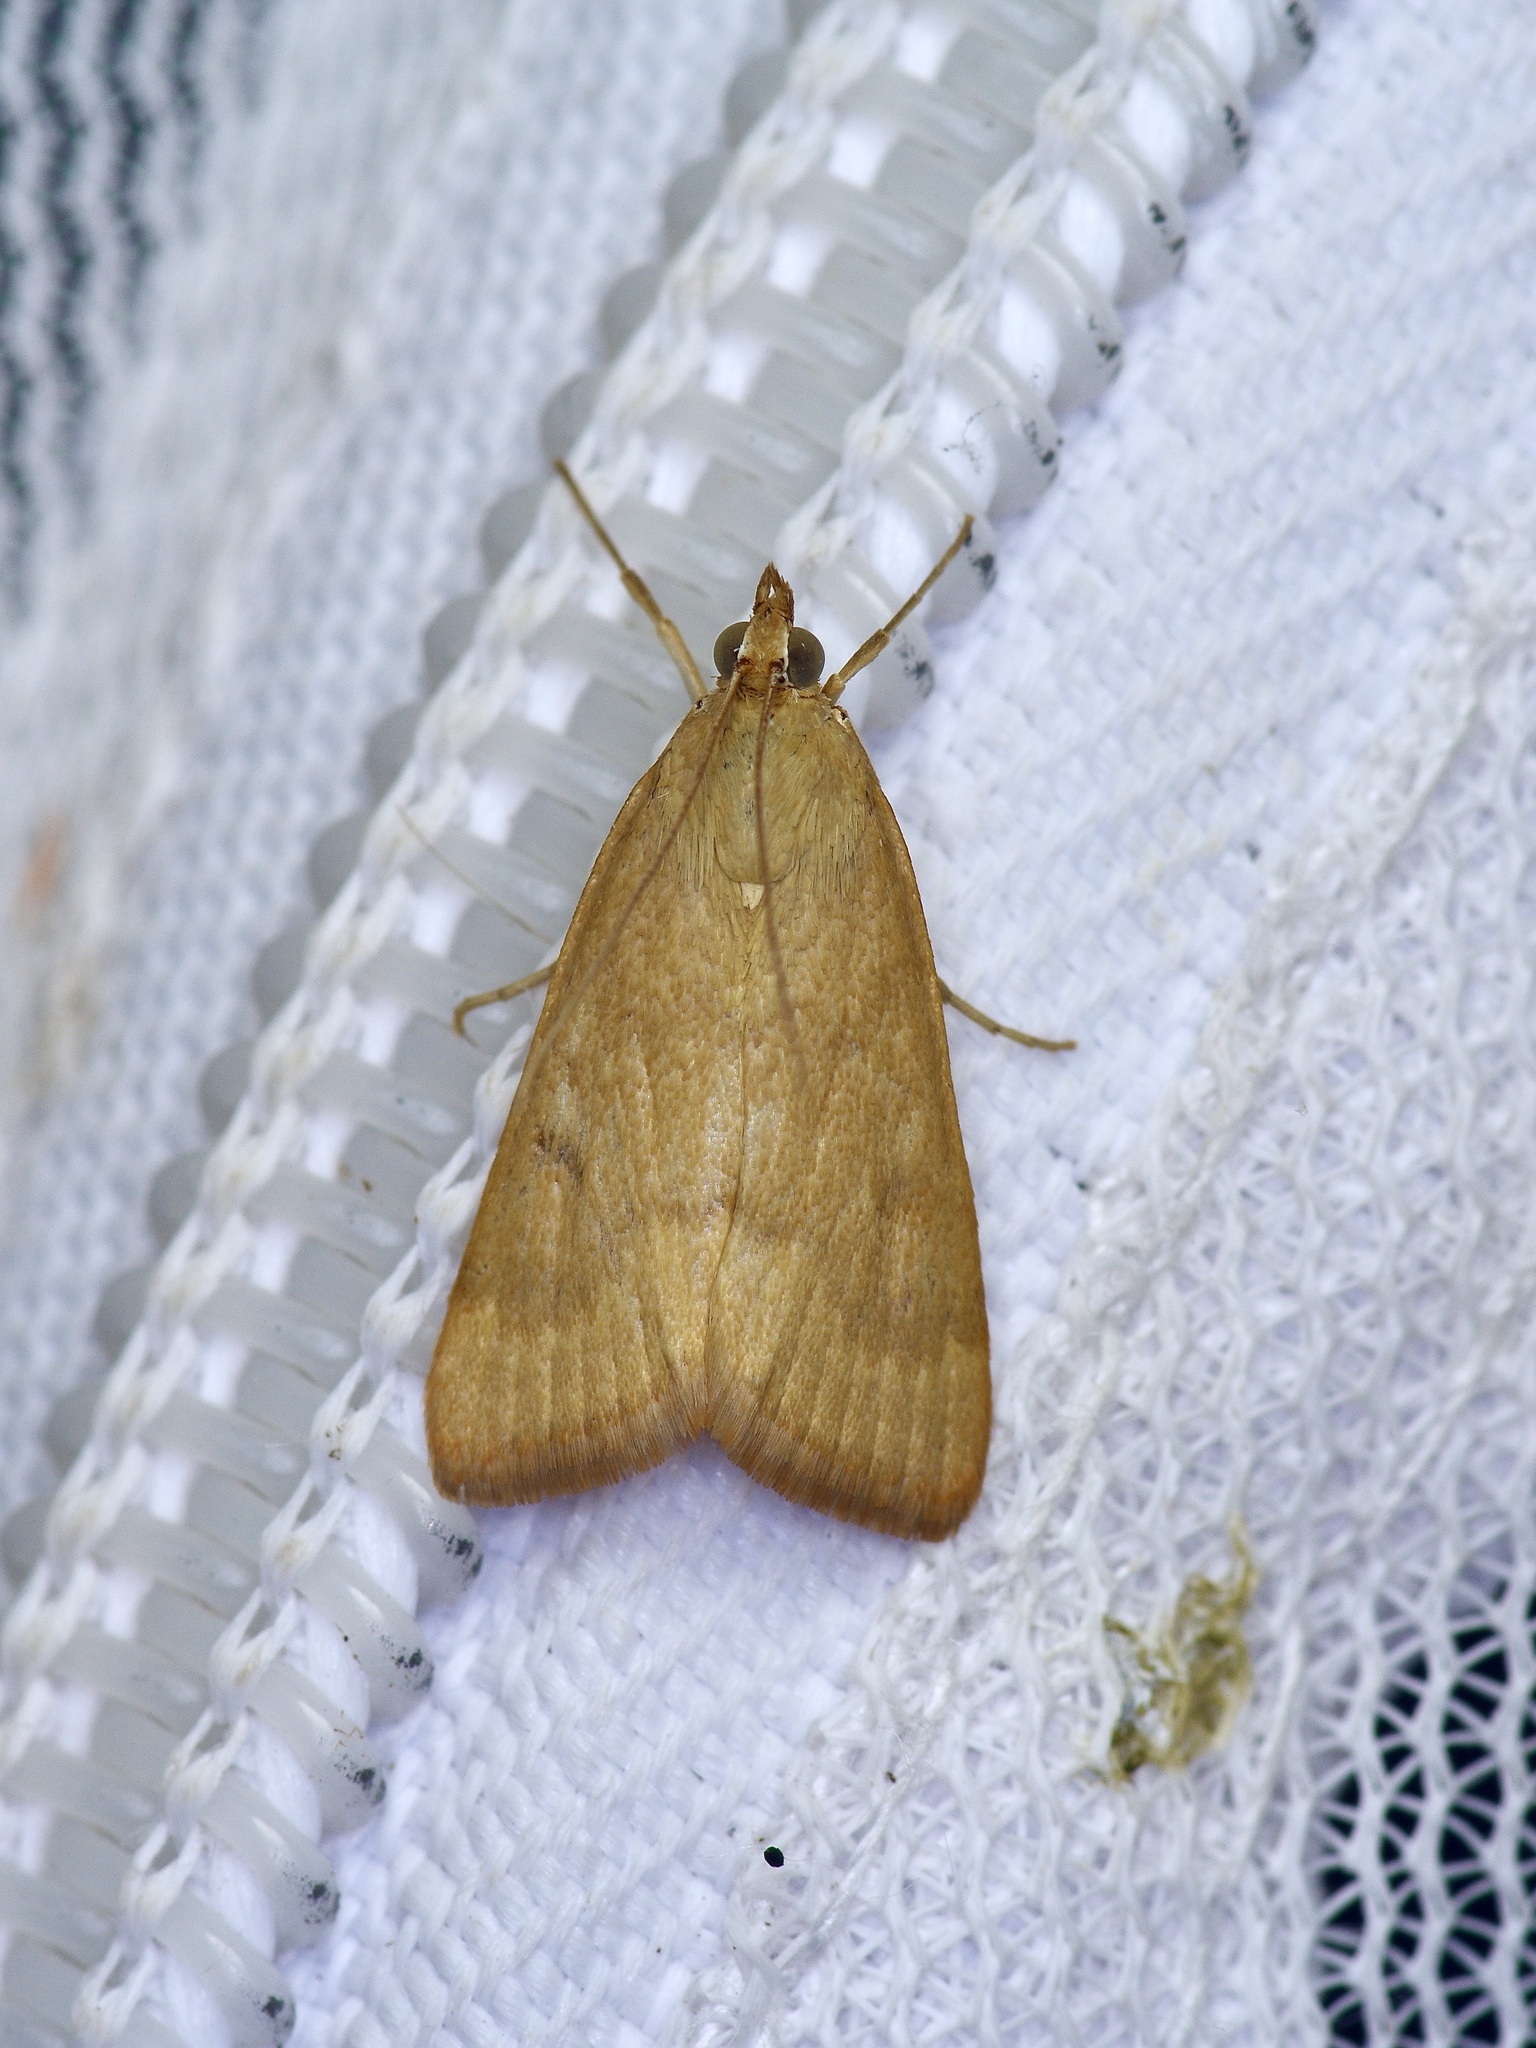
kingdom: Animalia
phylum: Arthropoda
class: Insecta
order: Lepidoptera
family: Crambidae
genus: Achyra
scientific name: Achyra rantalis
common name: Garden webworm
